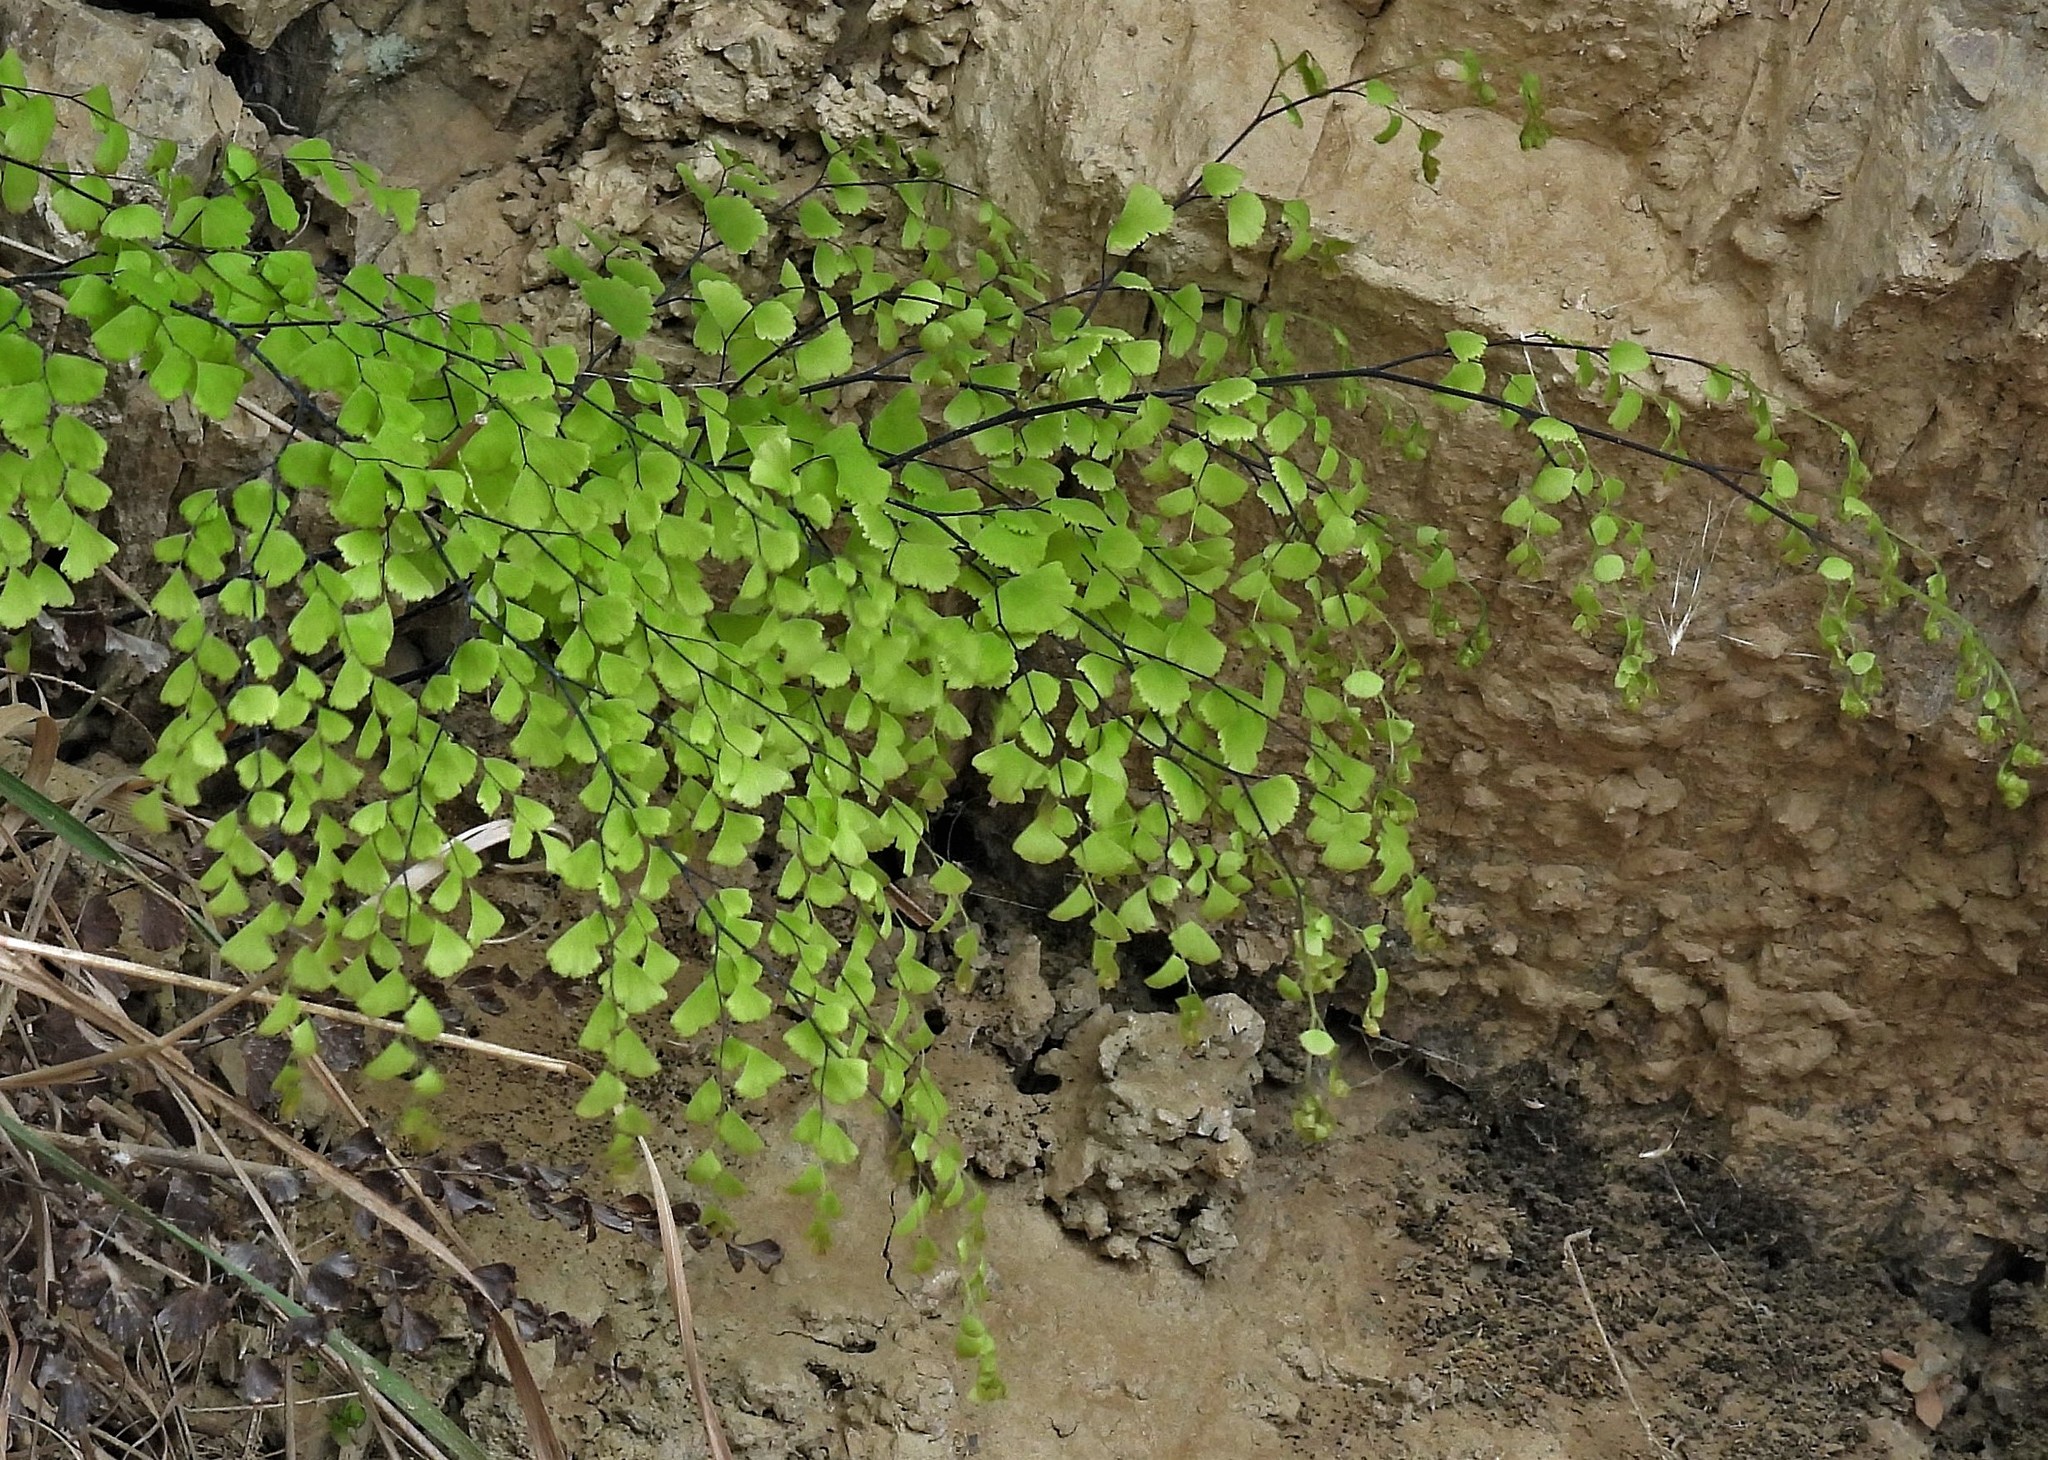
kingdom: Plantae
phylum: Tracheophyta
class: Polypodiopsida
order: Polypodiales
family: Pteridaceae
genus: Adiantum
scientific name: Adiantum lorentzii
